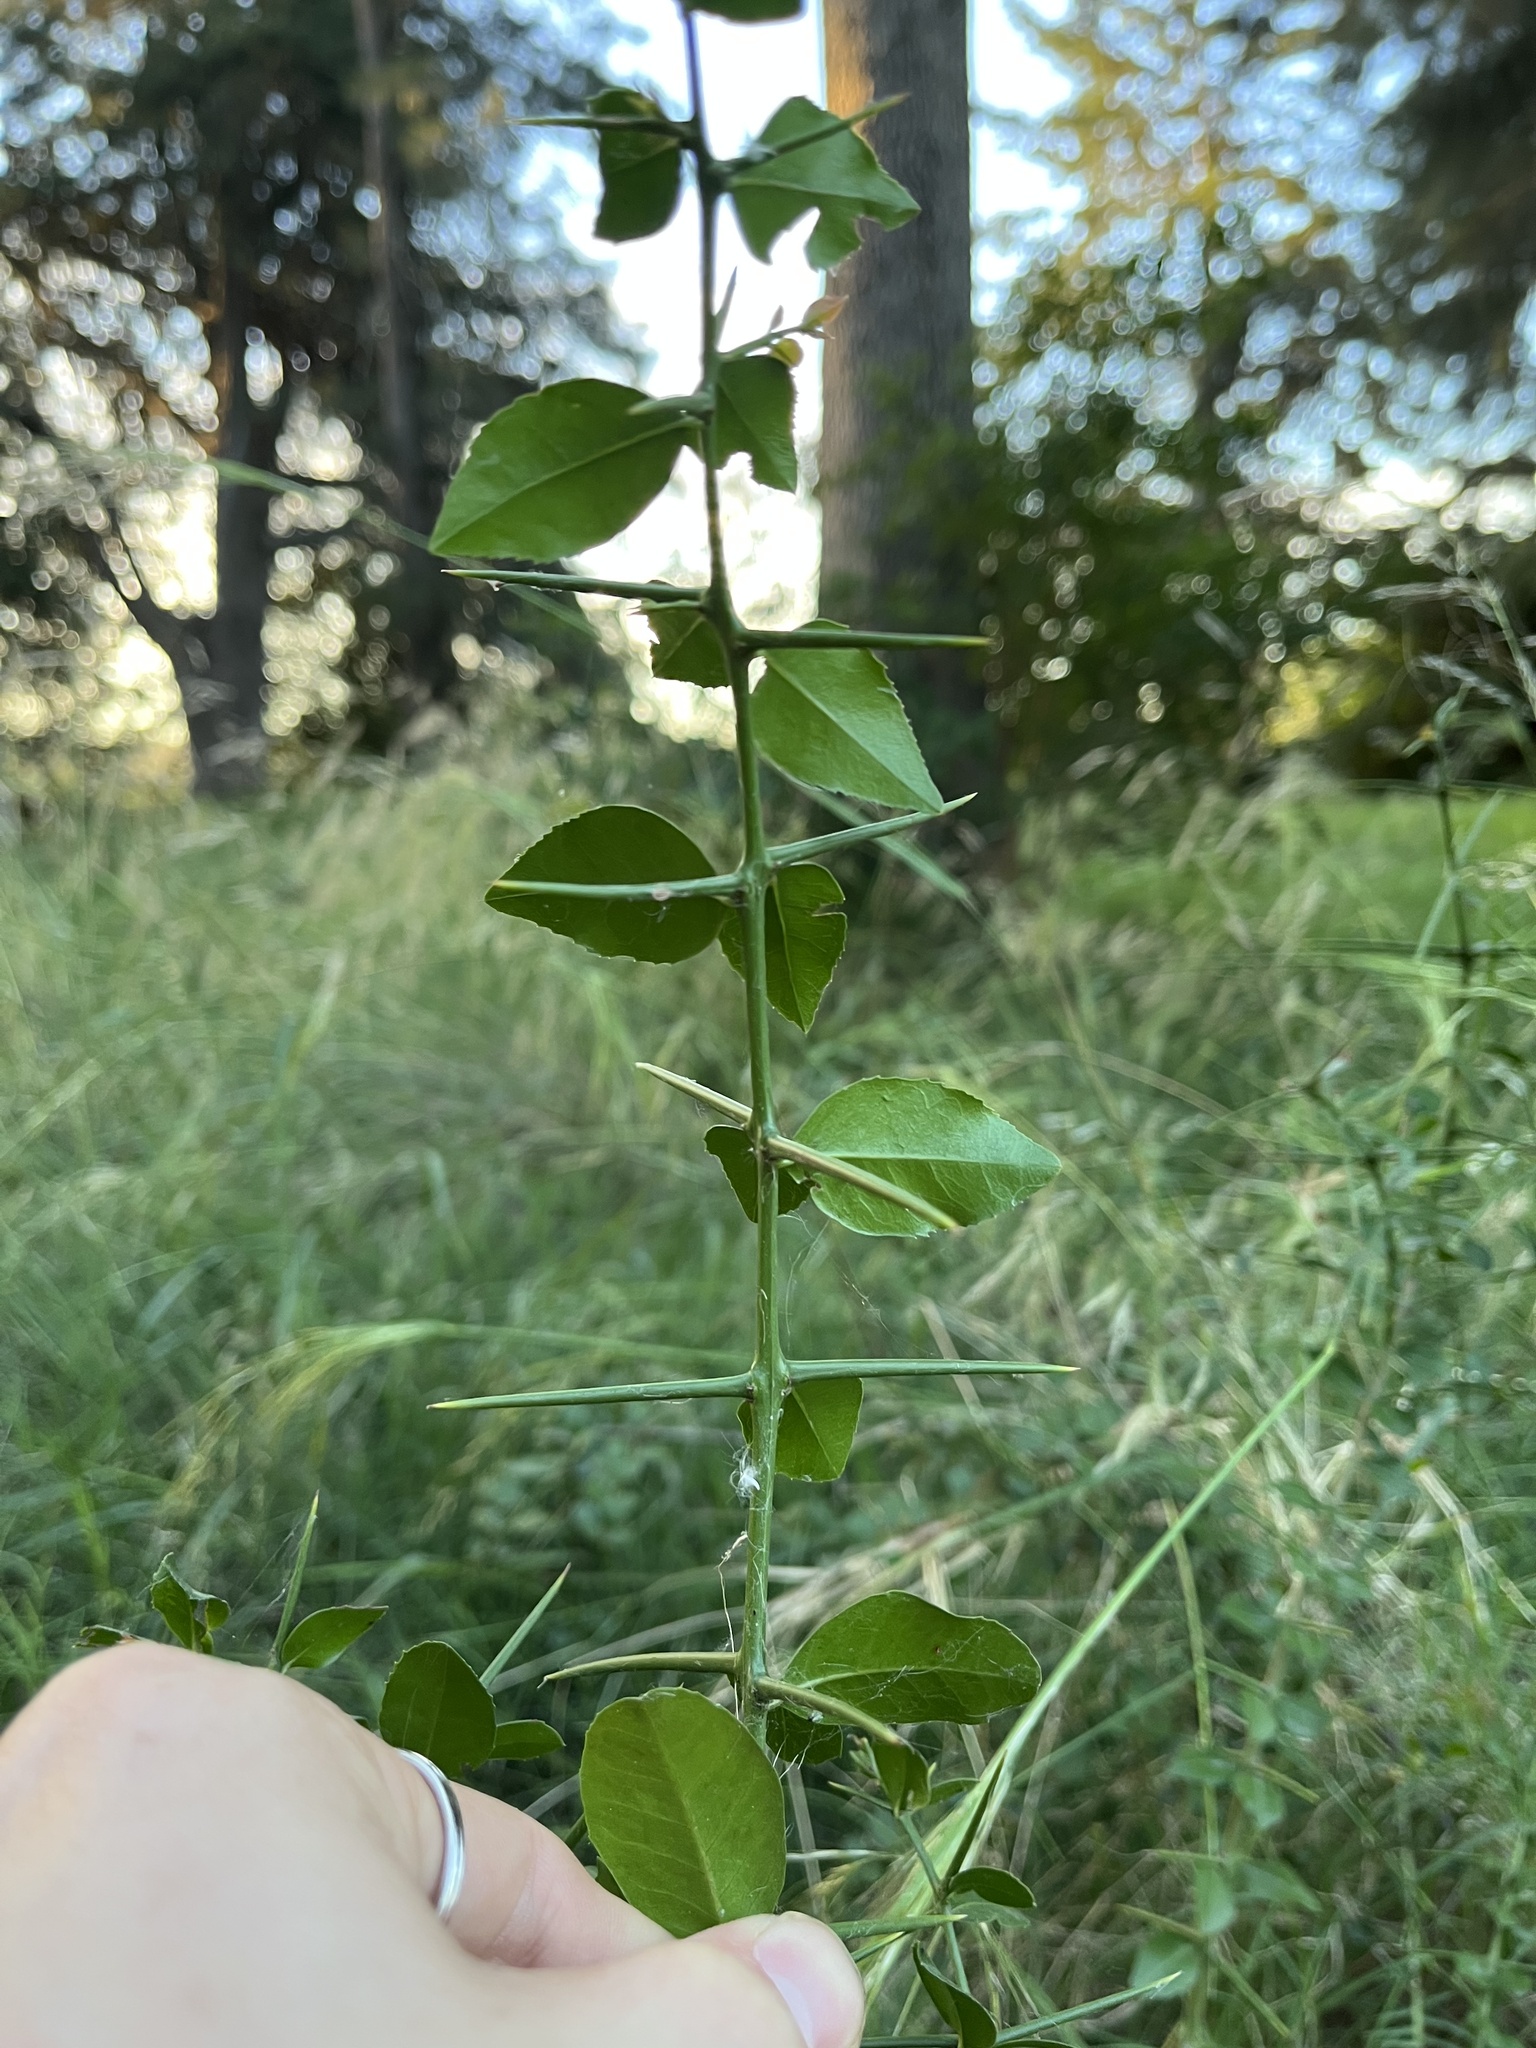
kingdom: Plantae
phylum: Tracheophyta
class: Magnoliopsida
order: Rosales
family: Rhamnaceae
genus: Scutia
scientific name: Scutia buxifolia
